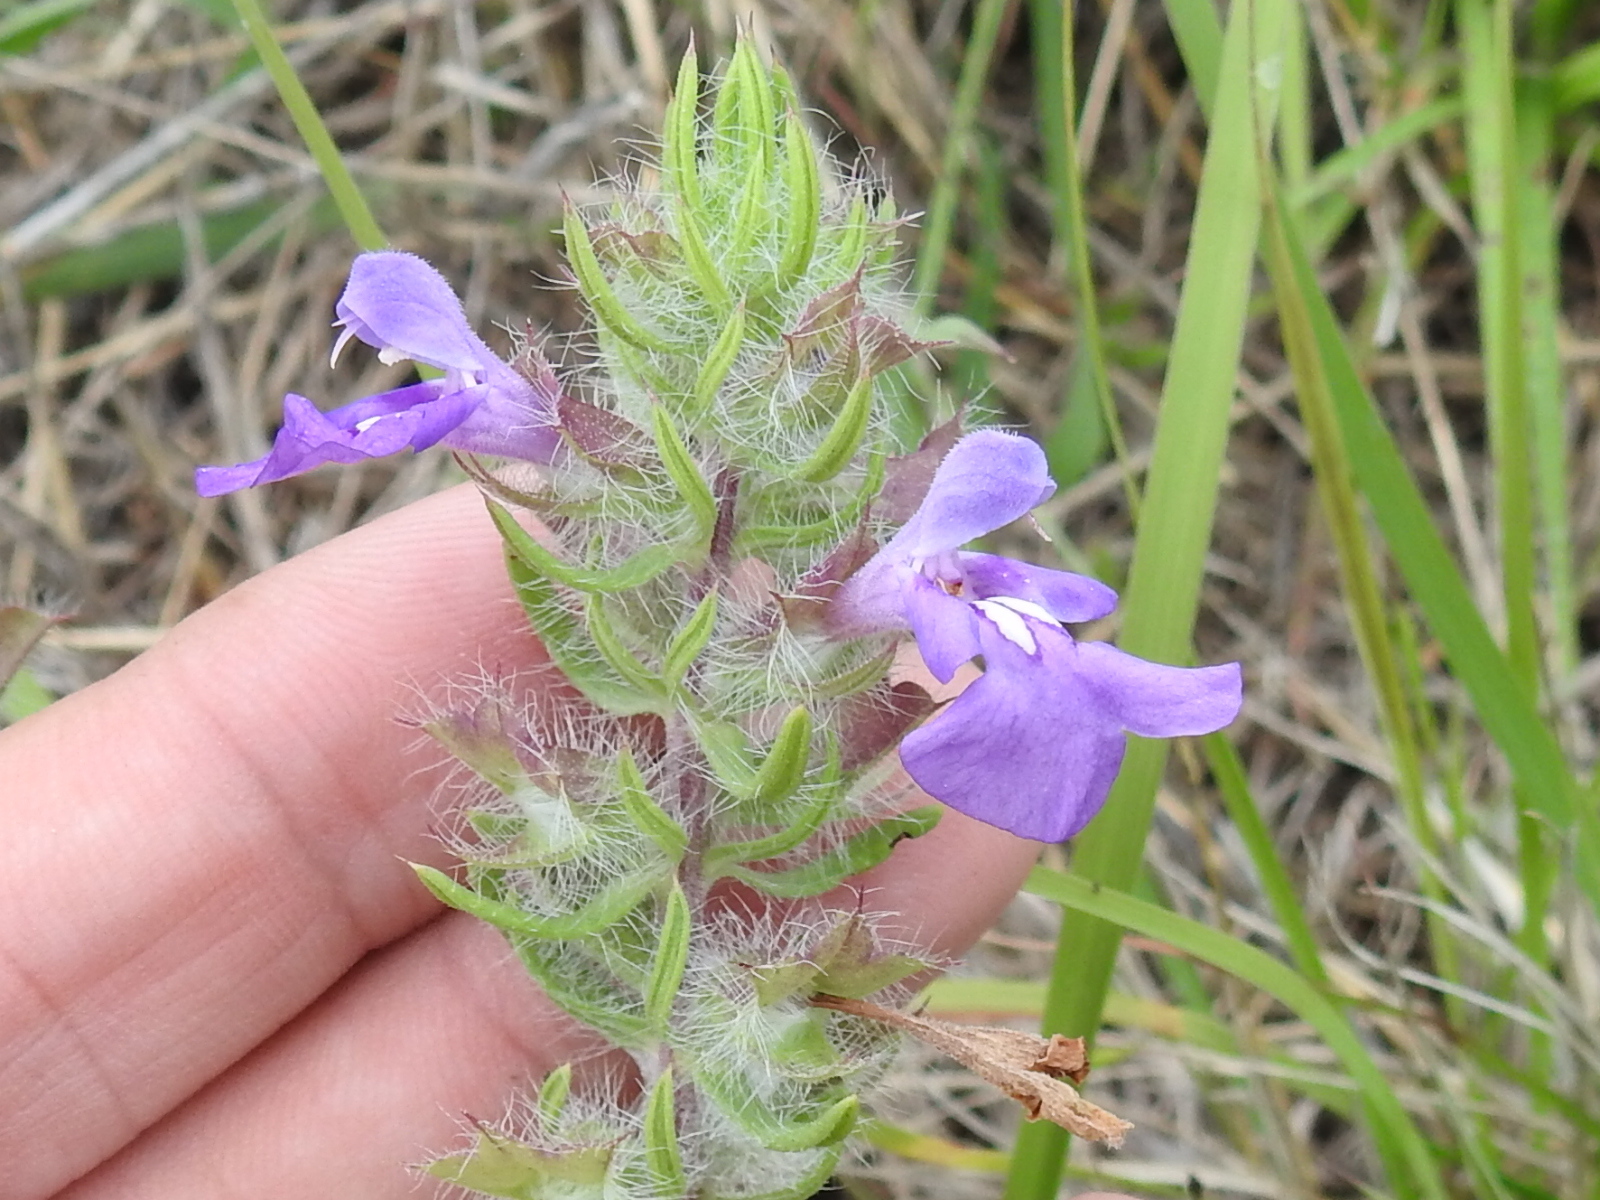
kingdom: Plantae
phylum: Tracheophyta
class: Magnoliopsida
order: Lamiales
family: Lamiaceae
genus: Salvia
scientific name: Salvia texana
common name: Texas sage
